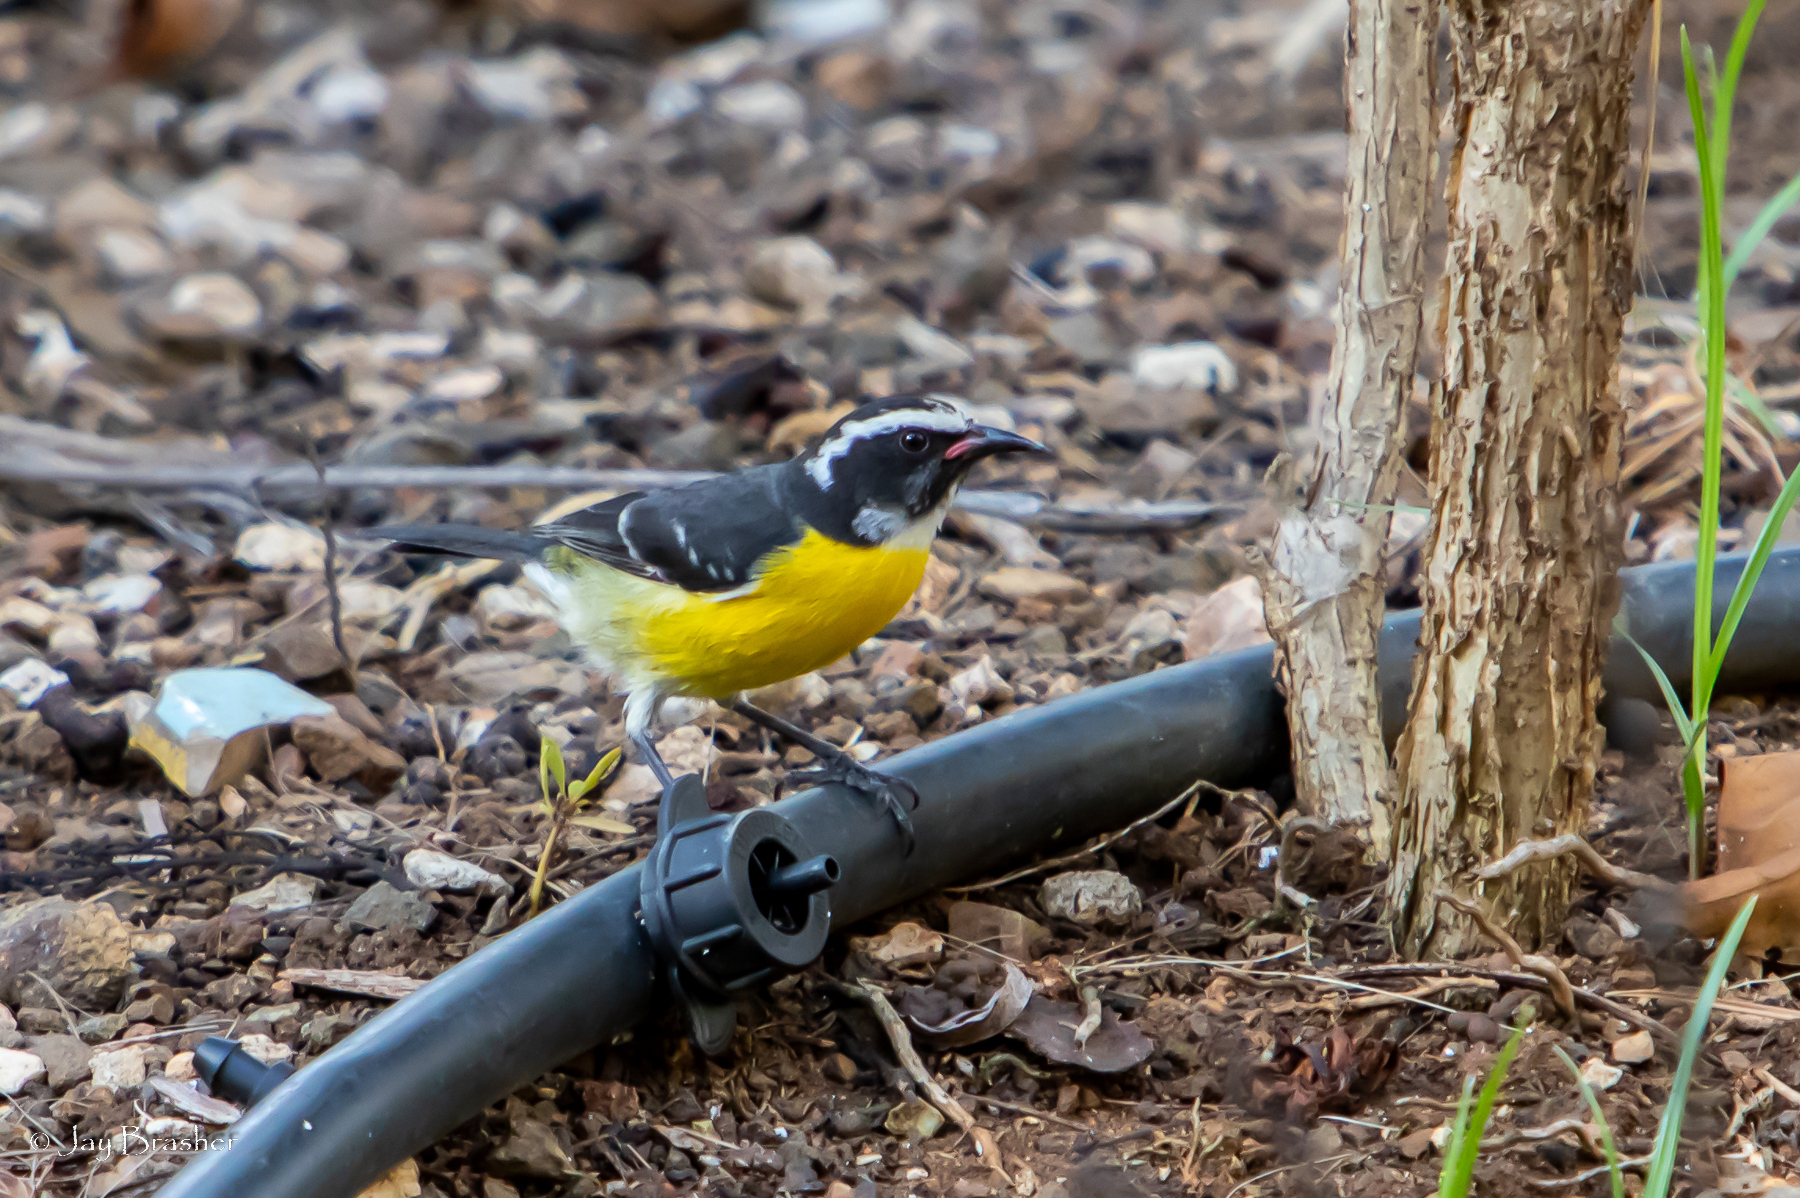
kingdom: Animalia
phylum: Chordata
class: Aves
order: Passeriformes
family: Thraupidae
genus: Coereba
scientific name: Coereba flaveola
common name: Bananaquit
